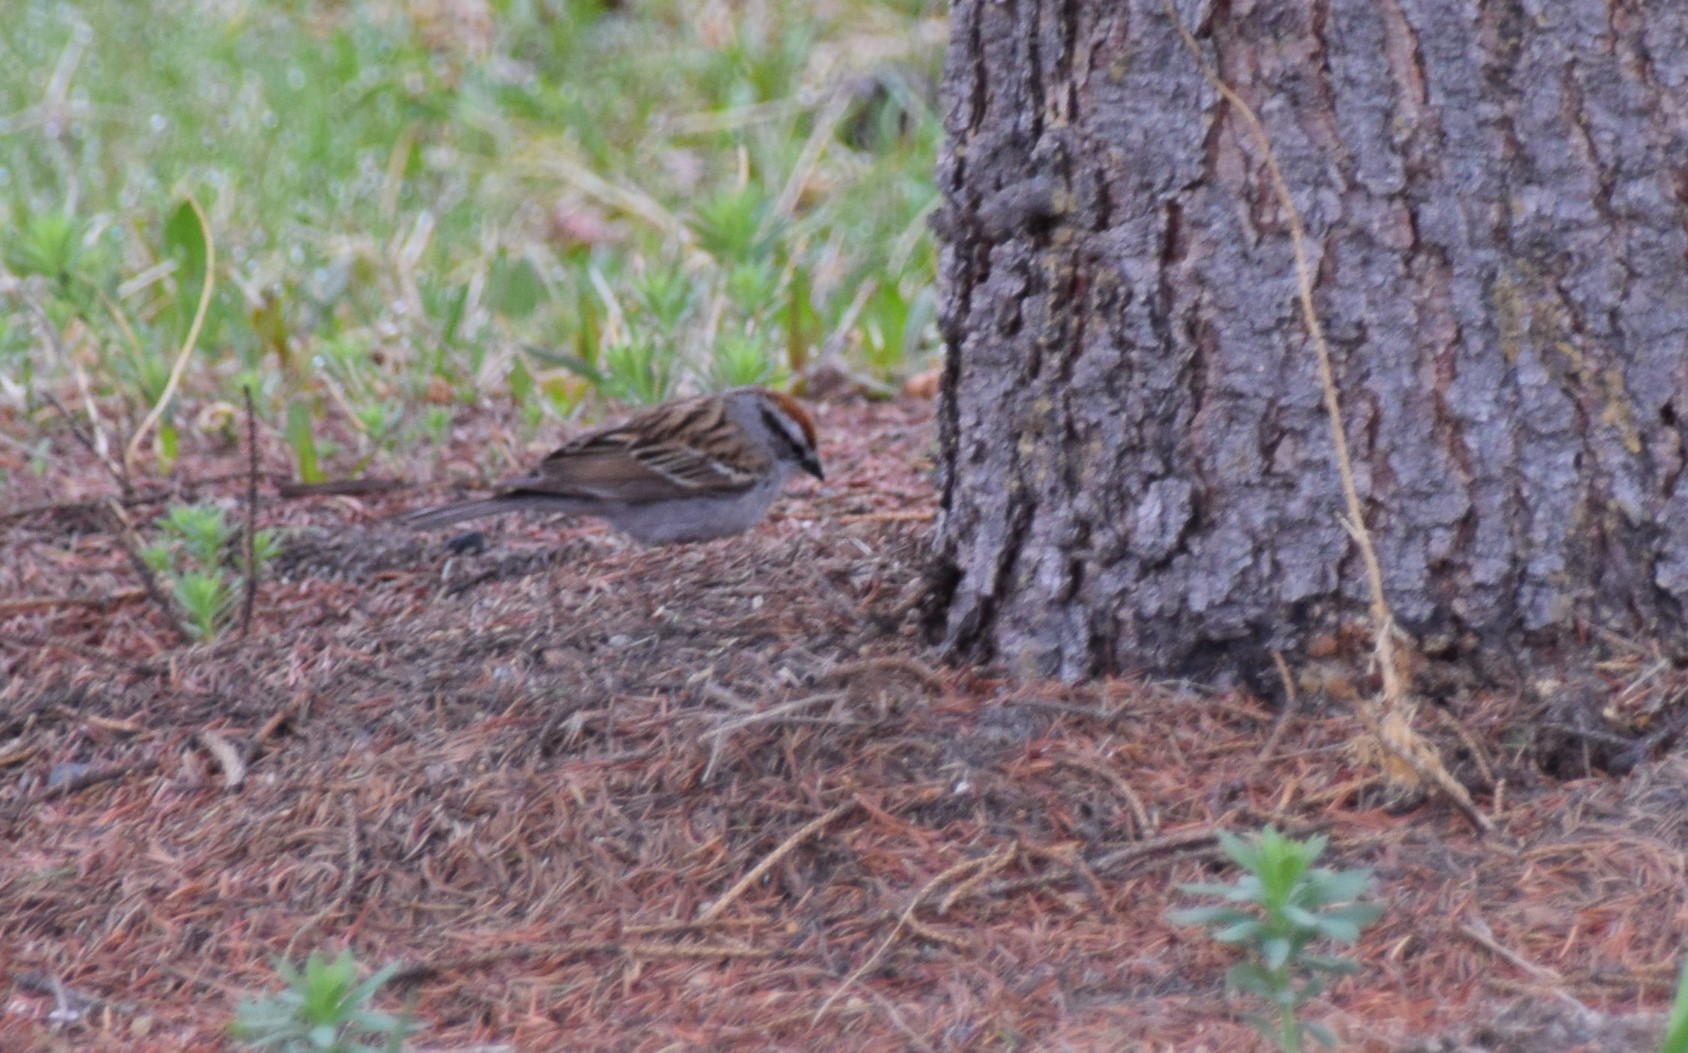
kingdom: Animalia
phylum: Chordata
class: Aves
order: Passeriformes
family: Passerellidae
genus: Spizella
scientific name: Spizella passerina
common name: Chipping sparrow
